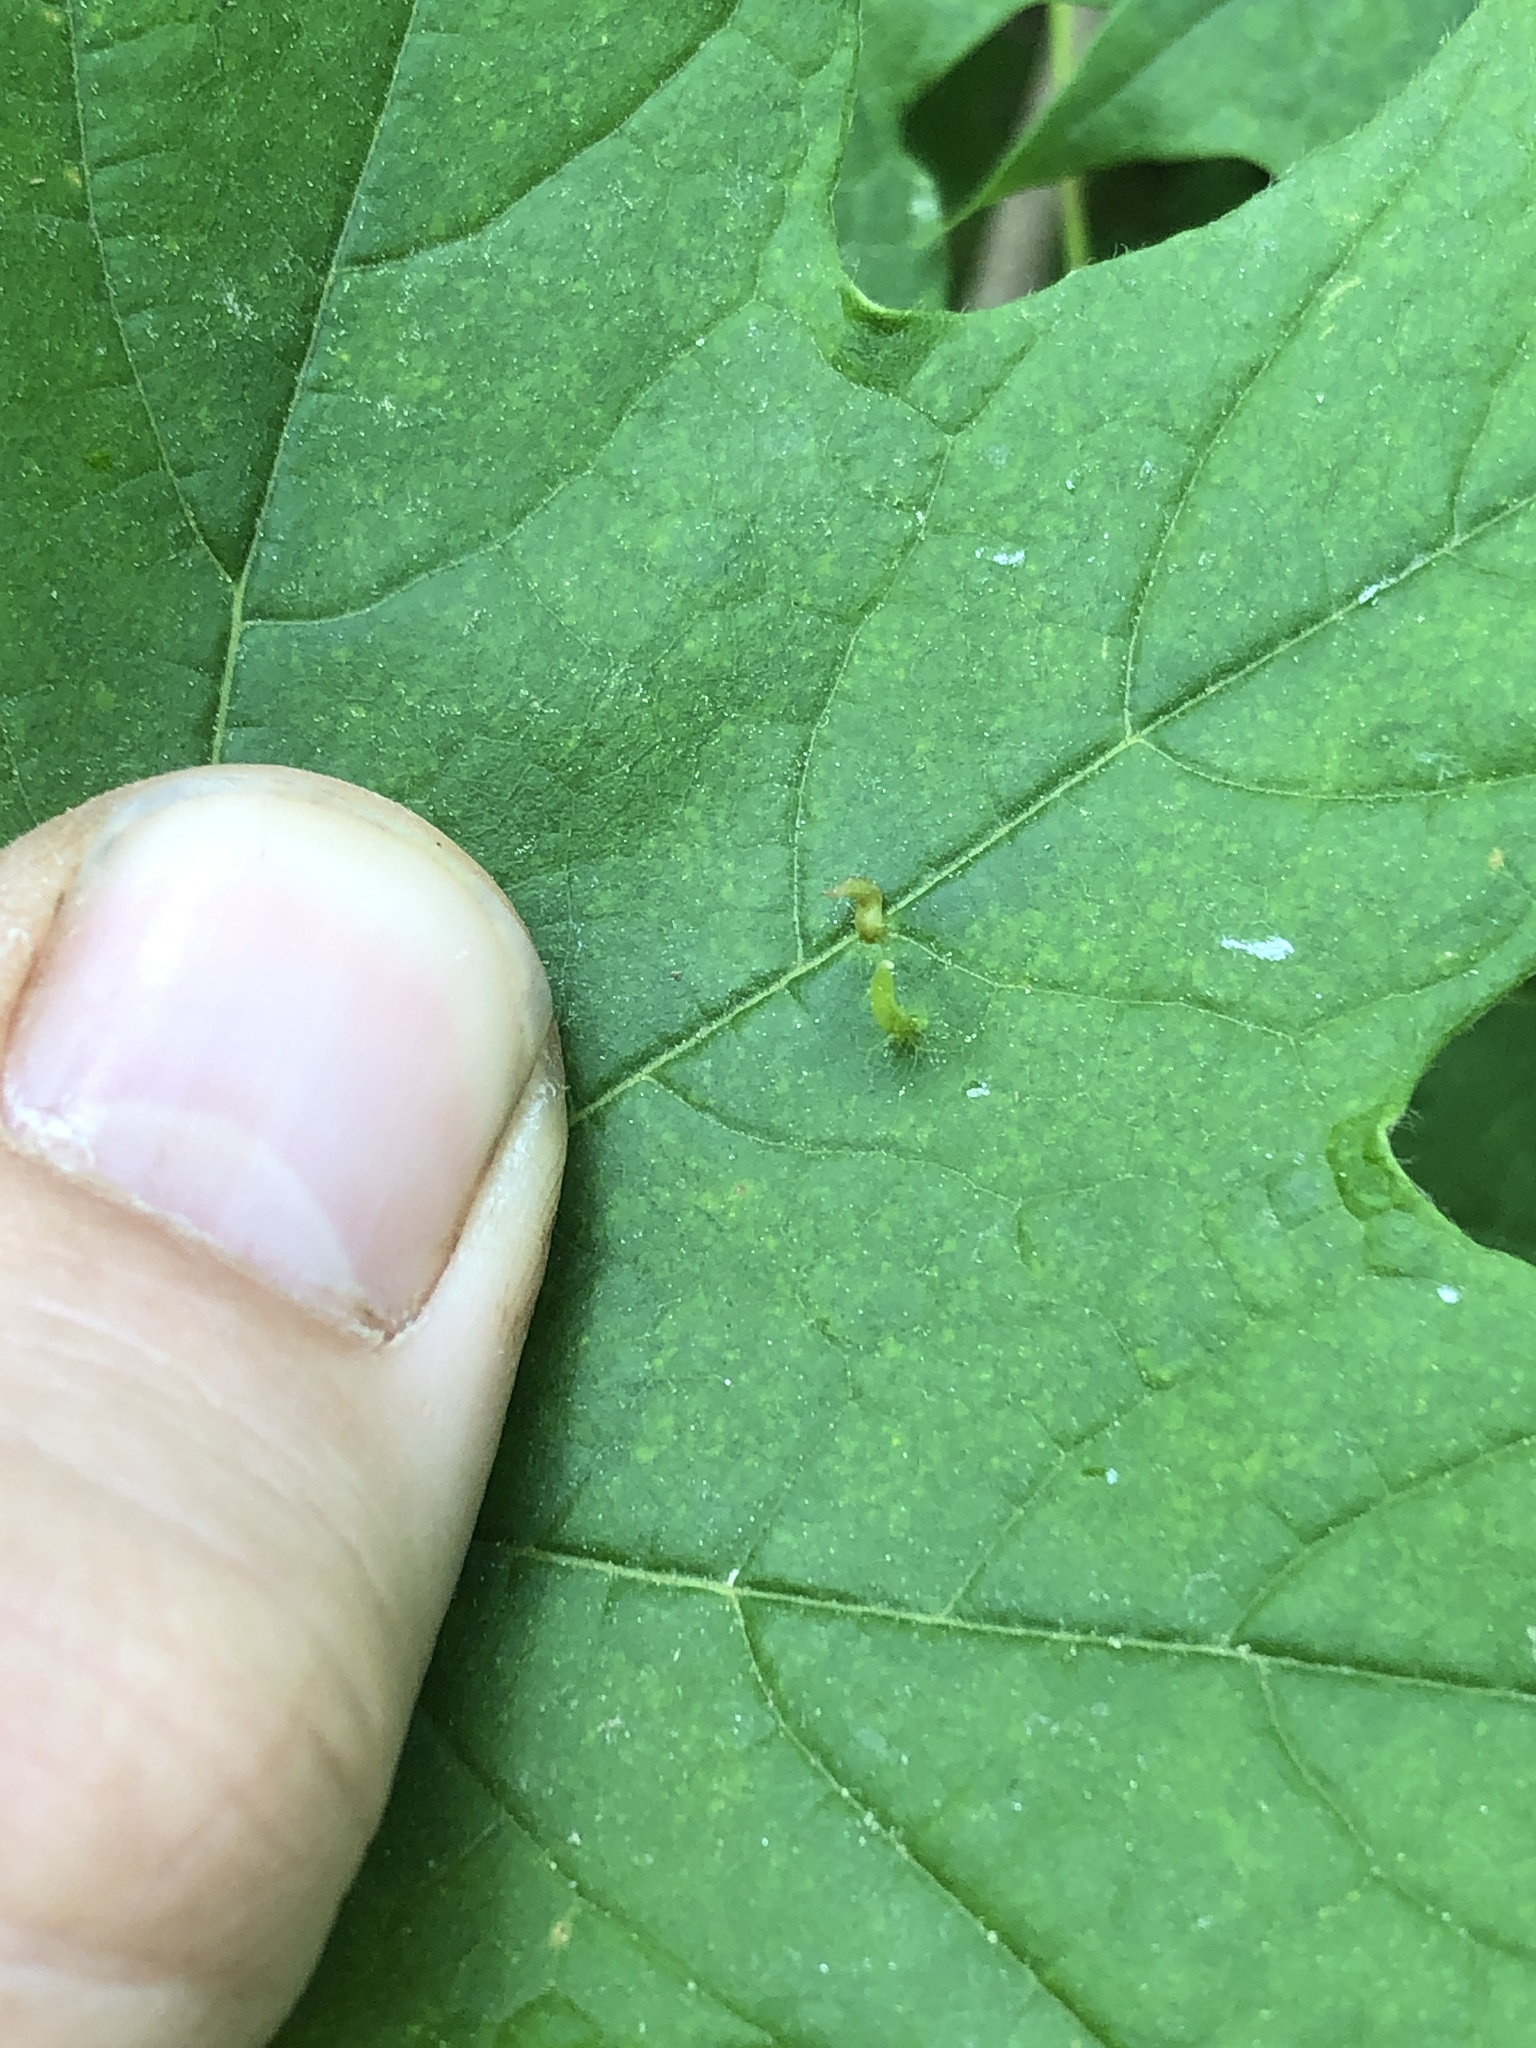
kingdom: Animalia
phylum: Arthropoda
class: Arachnida
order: Trombidiformes
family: Eriophyidae
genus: Vasates
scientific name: Vasates aceriscrumena
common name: Maple spindle gall mite
